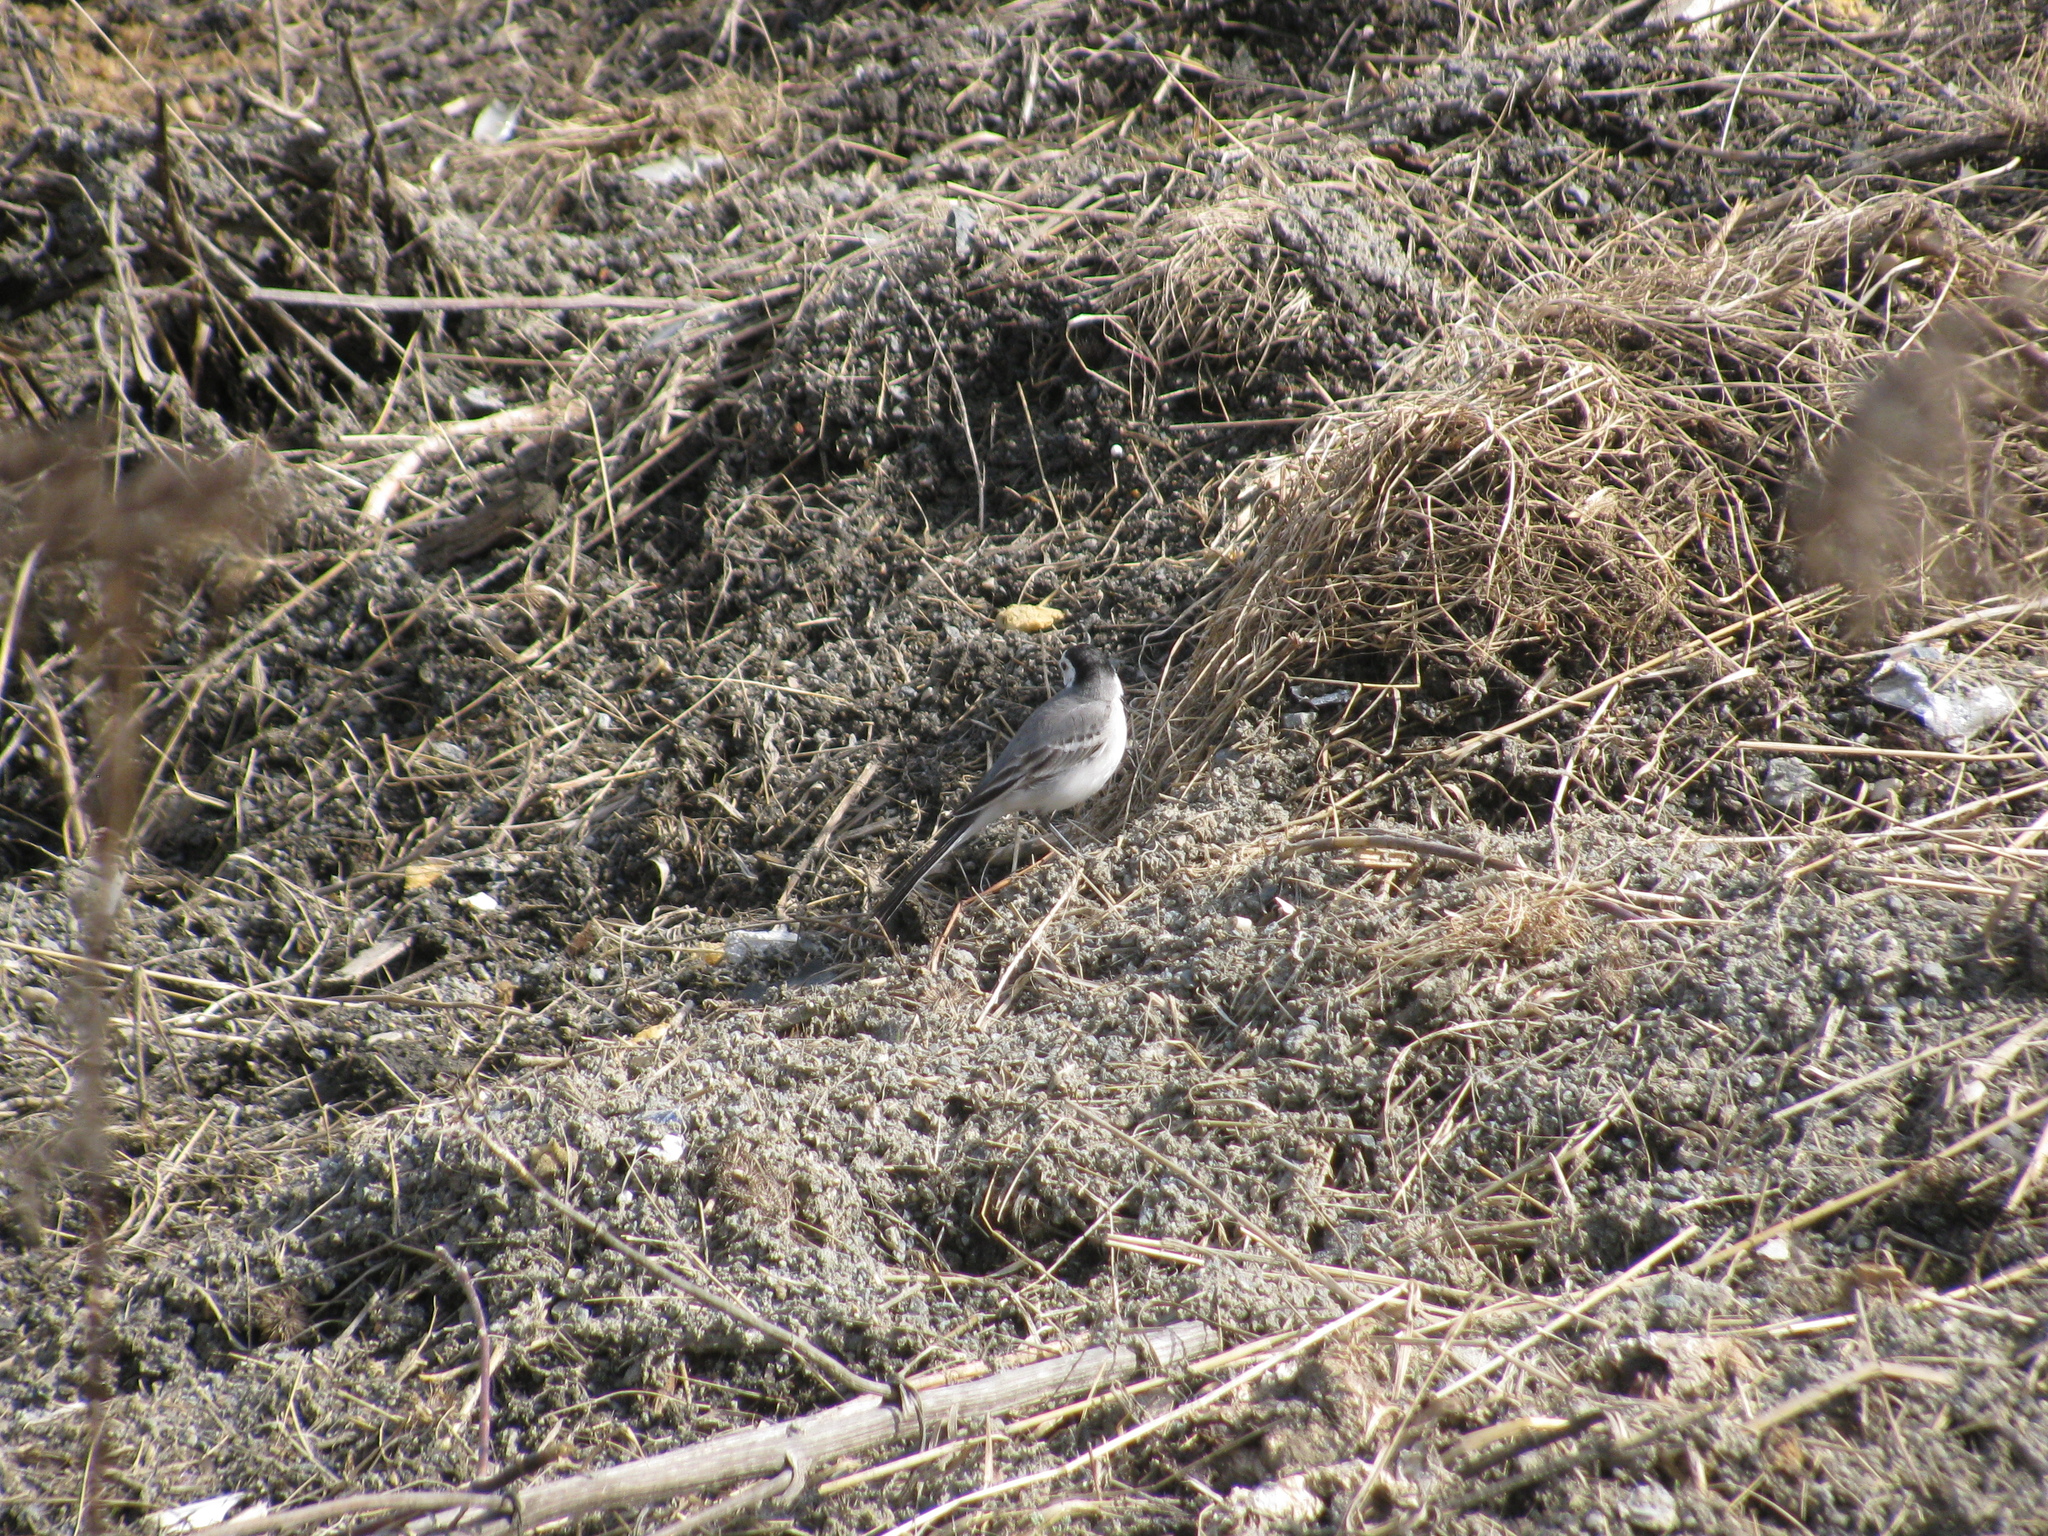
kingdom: Animalia
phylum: Chordata
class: Aves
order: Passeriformes
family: Motacillidae
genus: Motacilla
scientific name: Motacilla alba
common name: White wagtail
